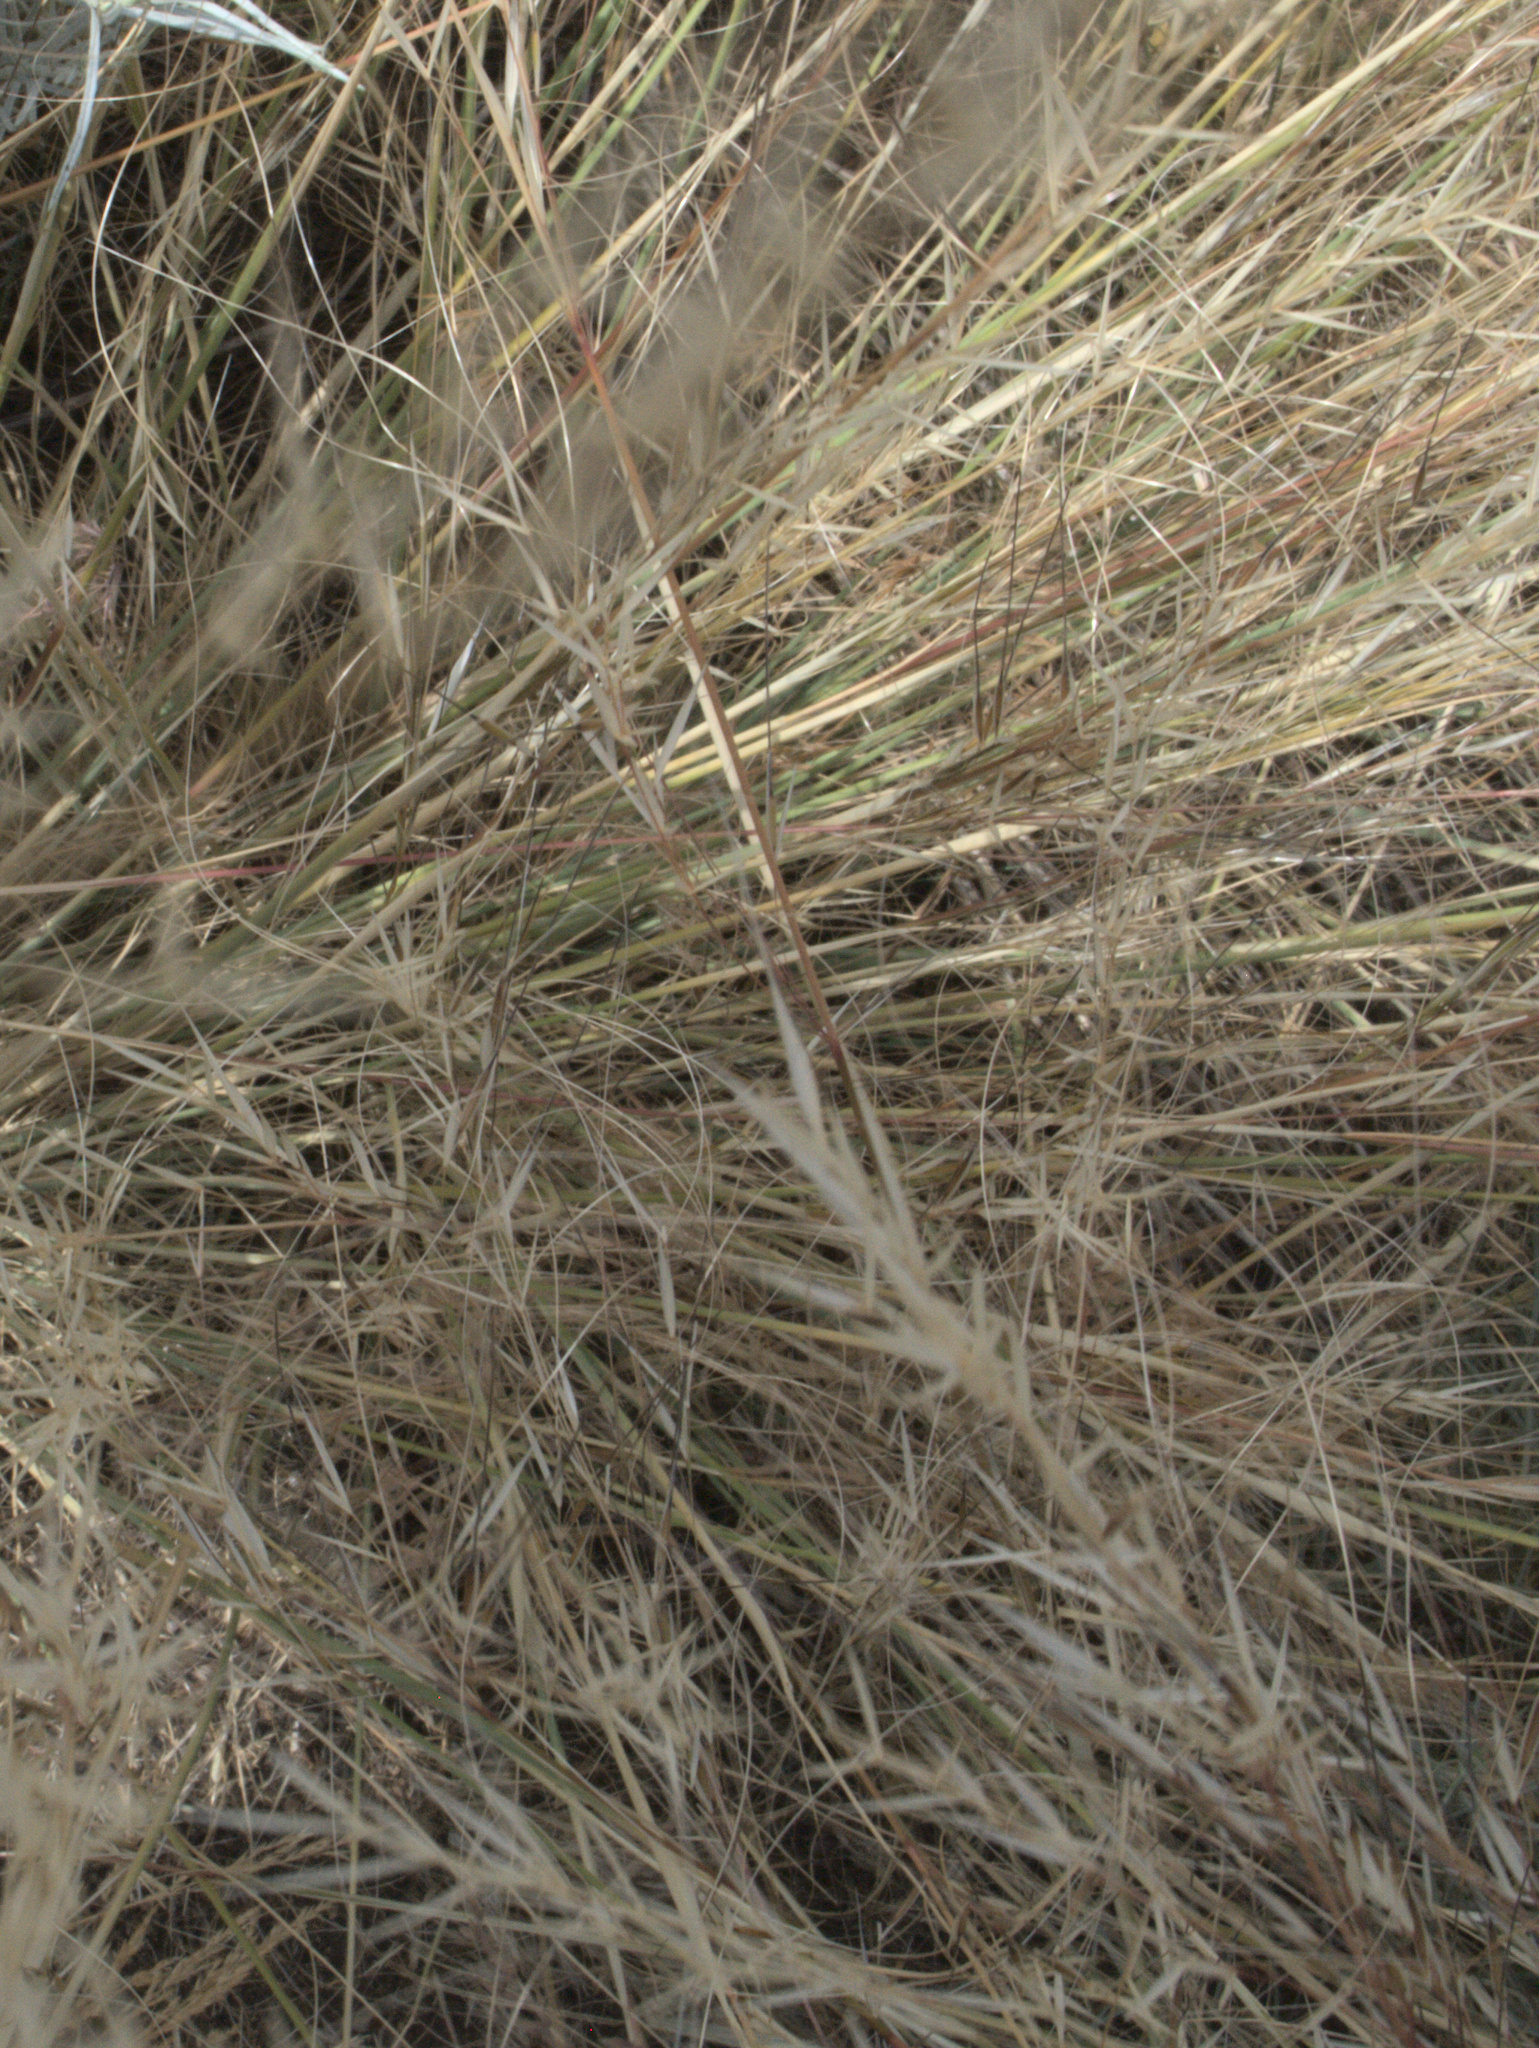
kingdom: Plantae
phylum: Tracheophyta
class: Liliopsida
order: Poales
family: Poaceae
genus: Hesperostipa
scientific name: Hesperostipa comata
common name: Needle-and-thread grass
